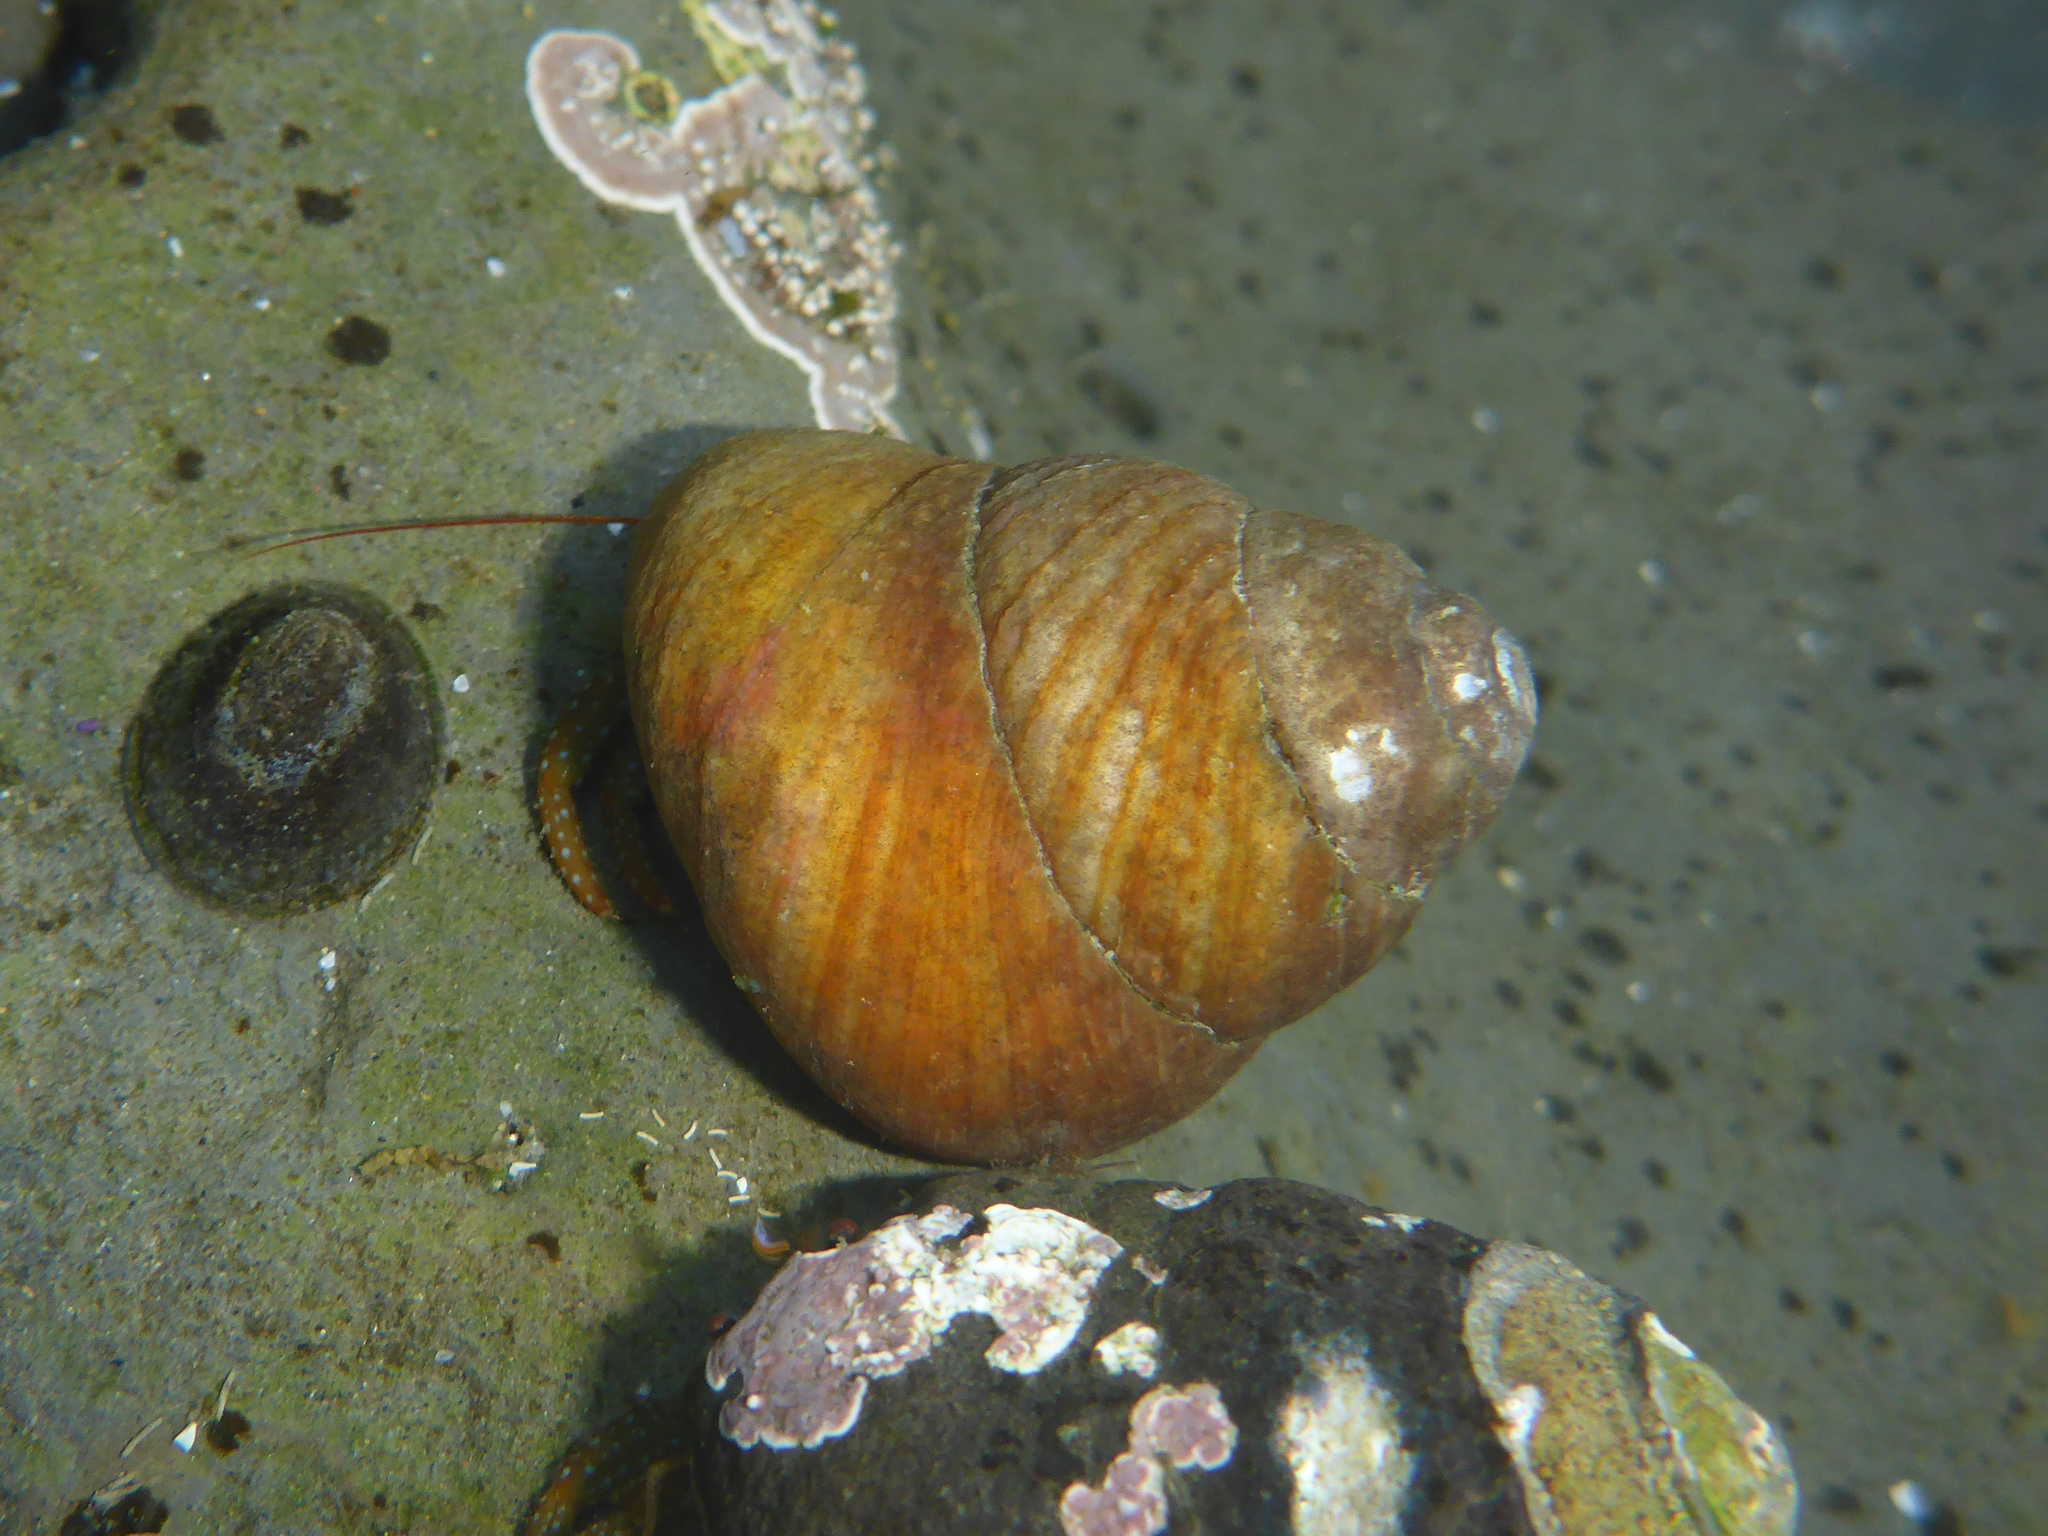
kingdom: Animalia
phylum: Mollusca
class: Gastropoda
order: Trochida
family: Tegulidae
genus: Tegula
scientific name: Tegula brunnea
